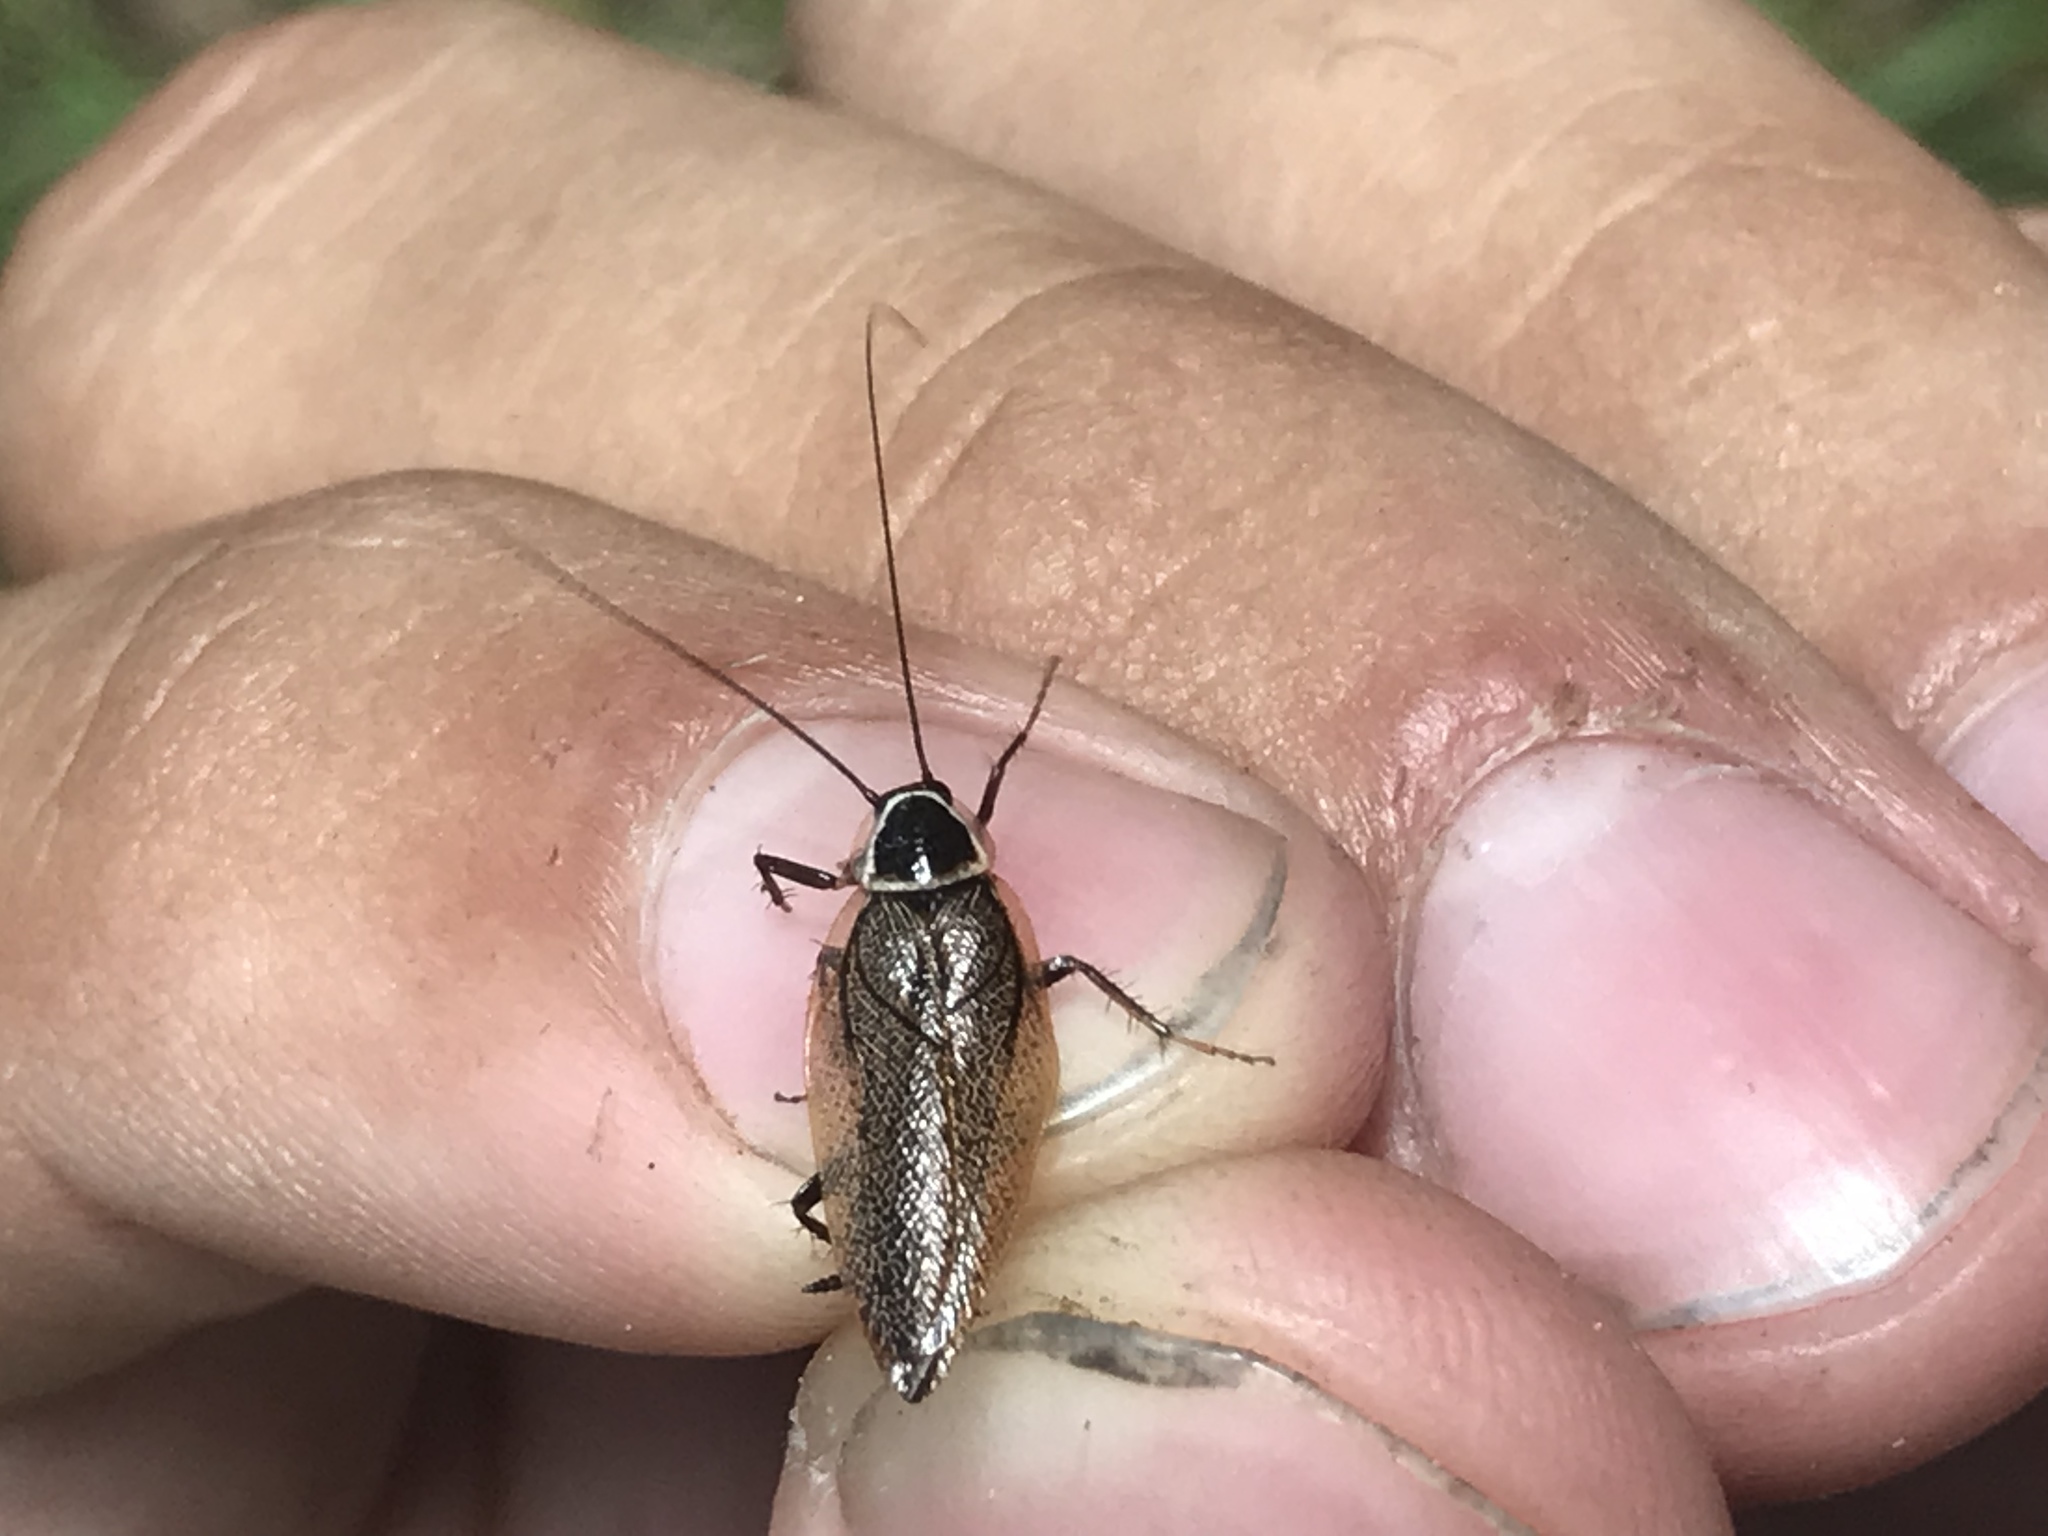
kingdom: Animalia
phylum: Arthropoda
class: Insecta
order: Blattodea
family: Ectobiidae
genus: Ectobius
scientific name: Ectobius sylvestris
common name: Forest cockroach
